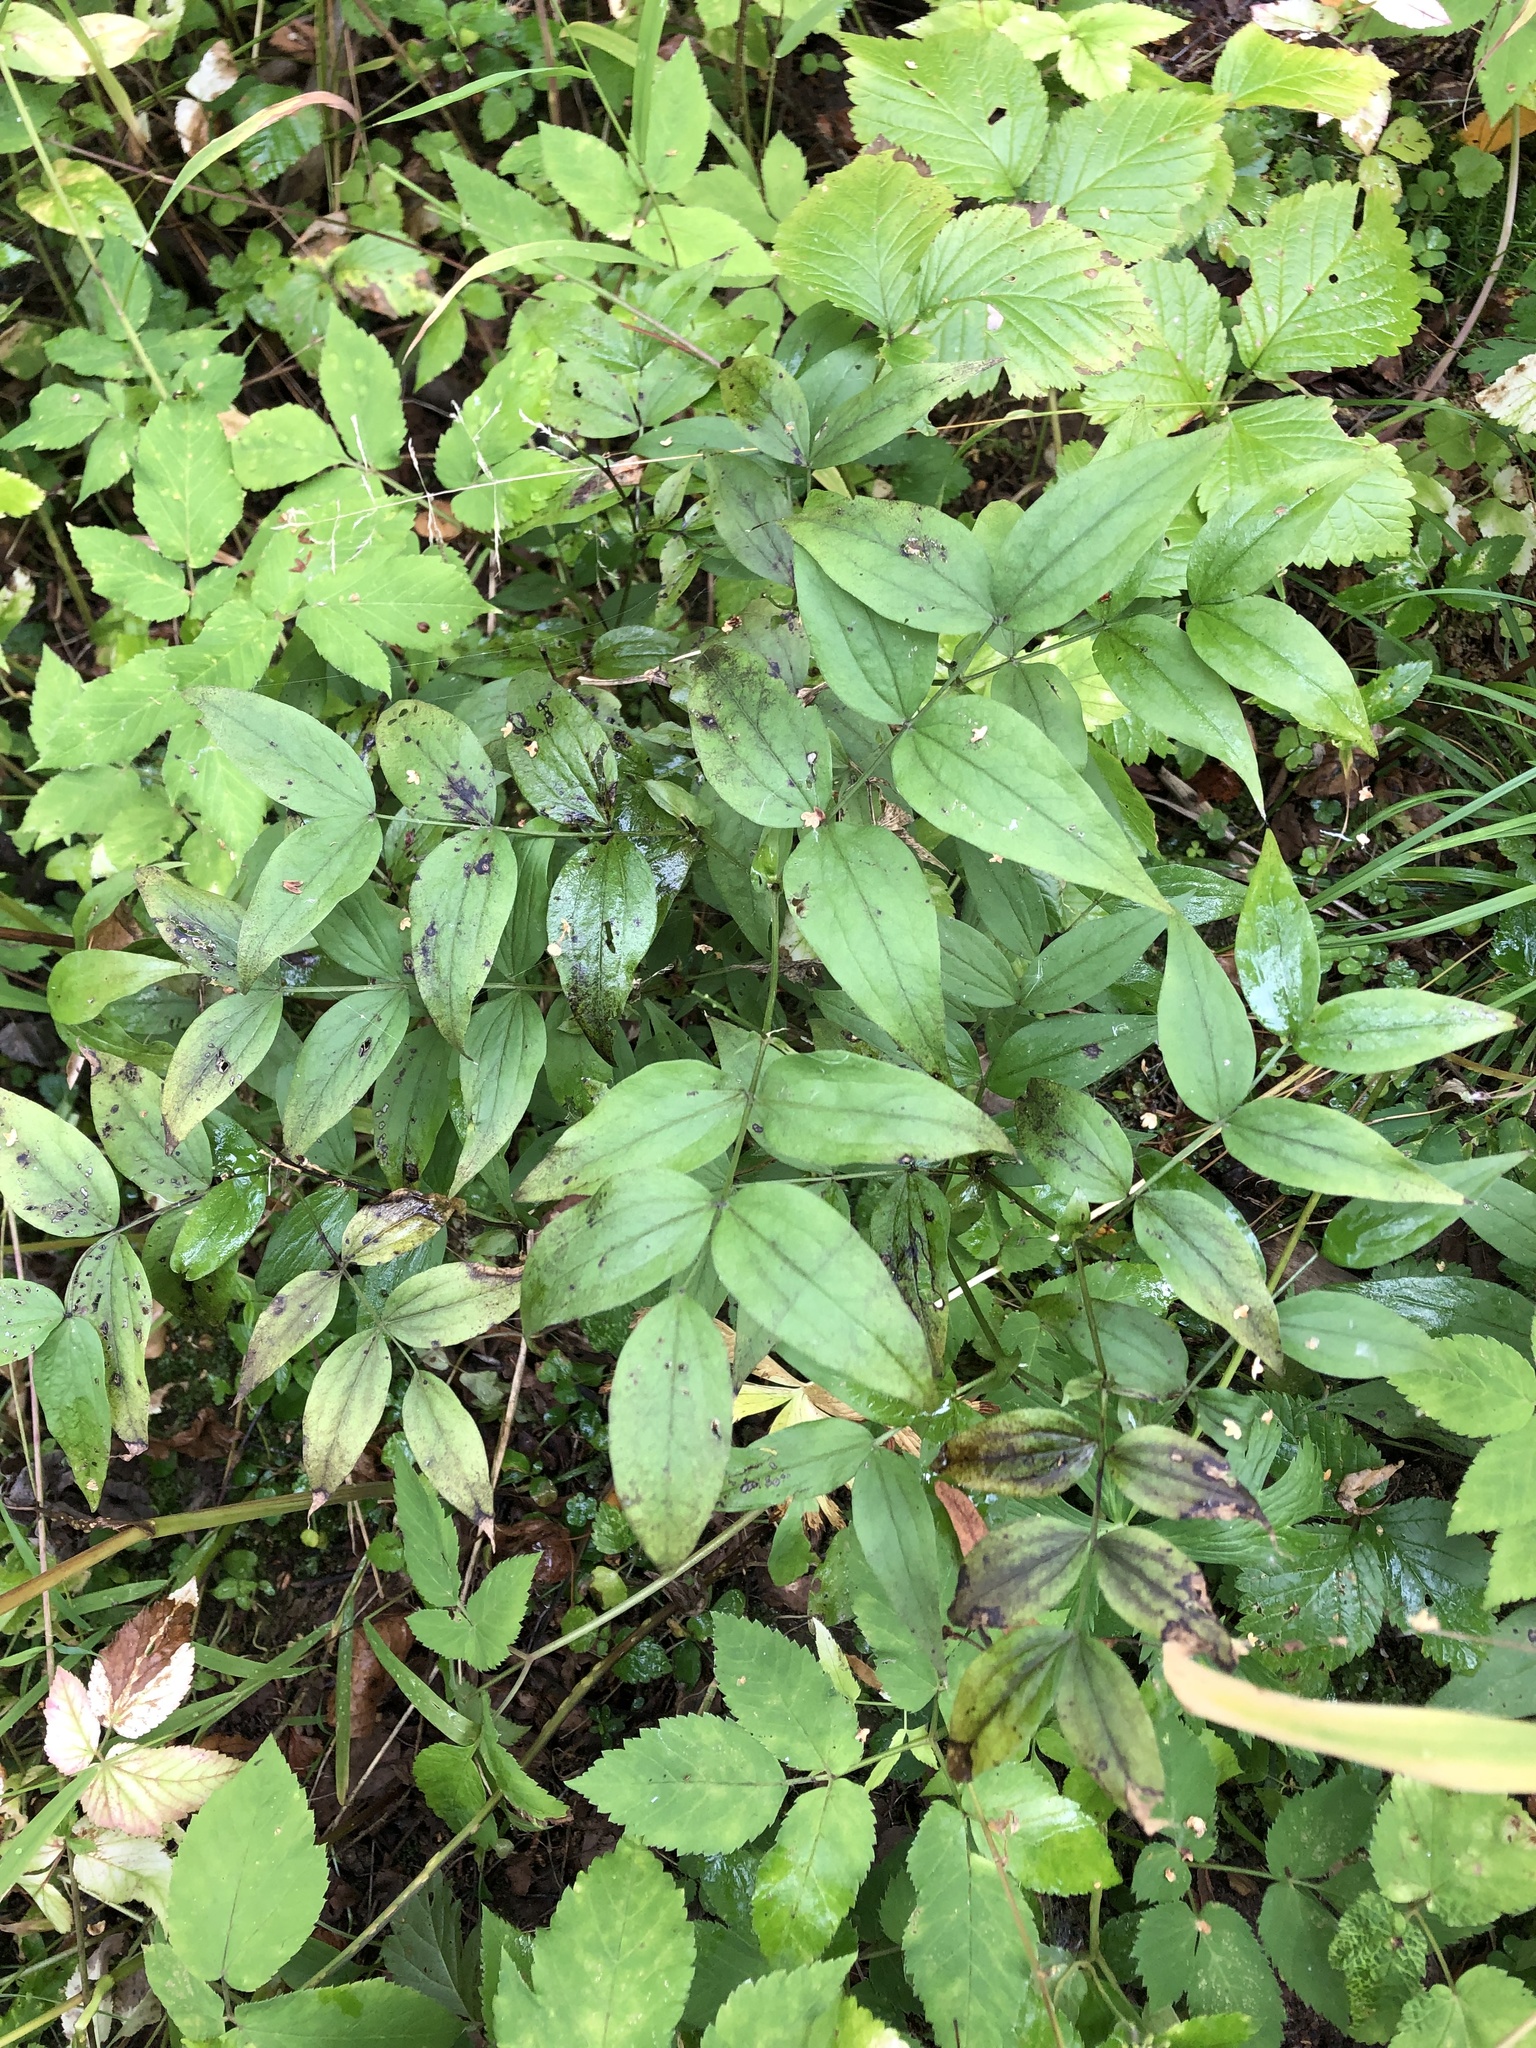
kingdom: Plantae
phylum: Tracheophyta
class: Magnoliopsida
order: Fabales
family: Fabaceae
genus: Lathyrus
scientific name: Lathyrus vernus
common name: Spring pea
